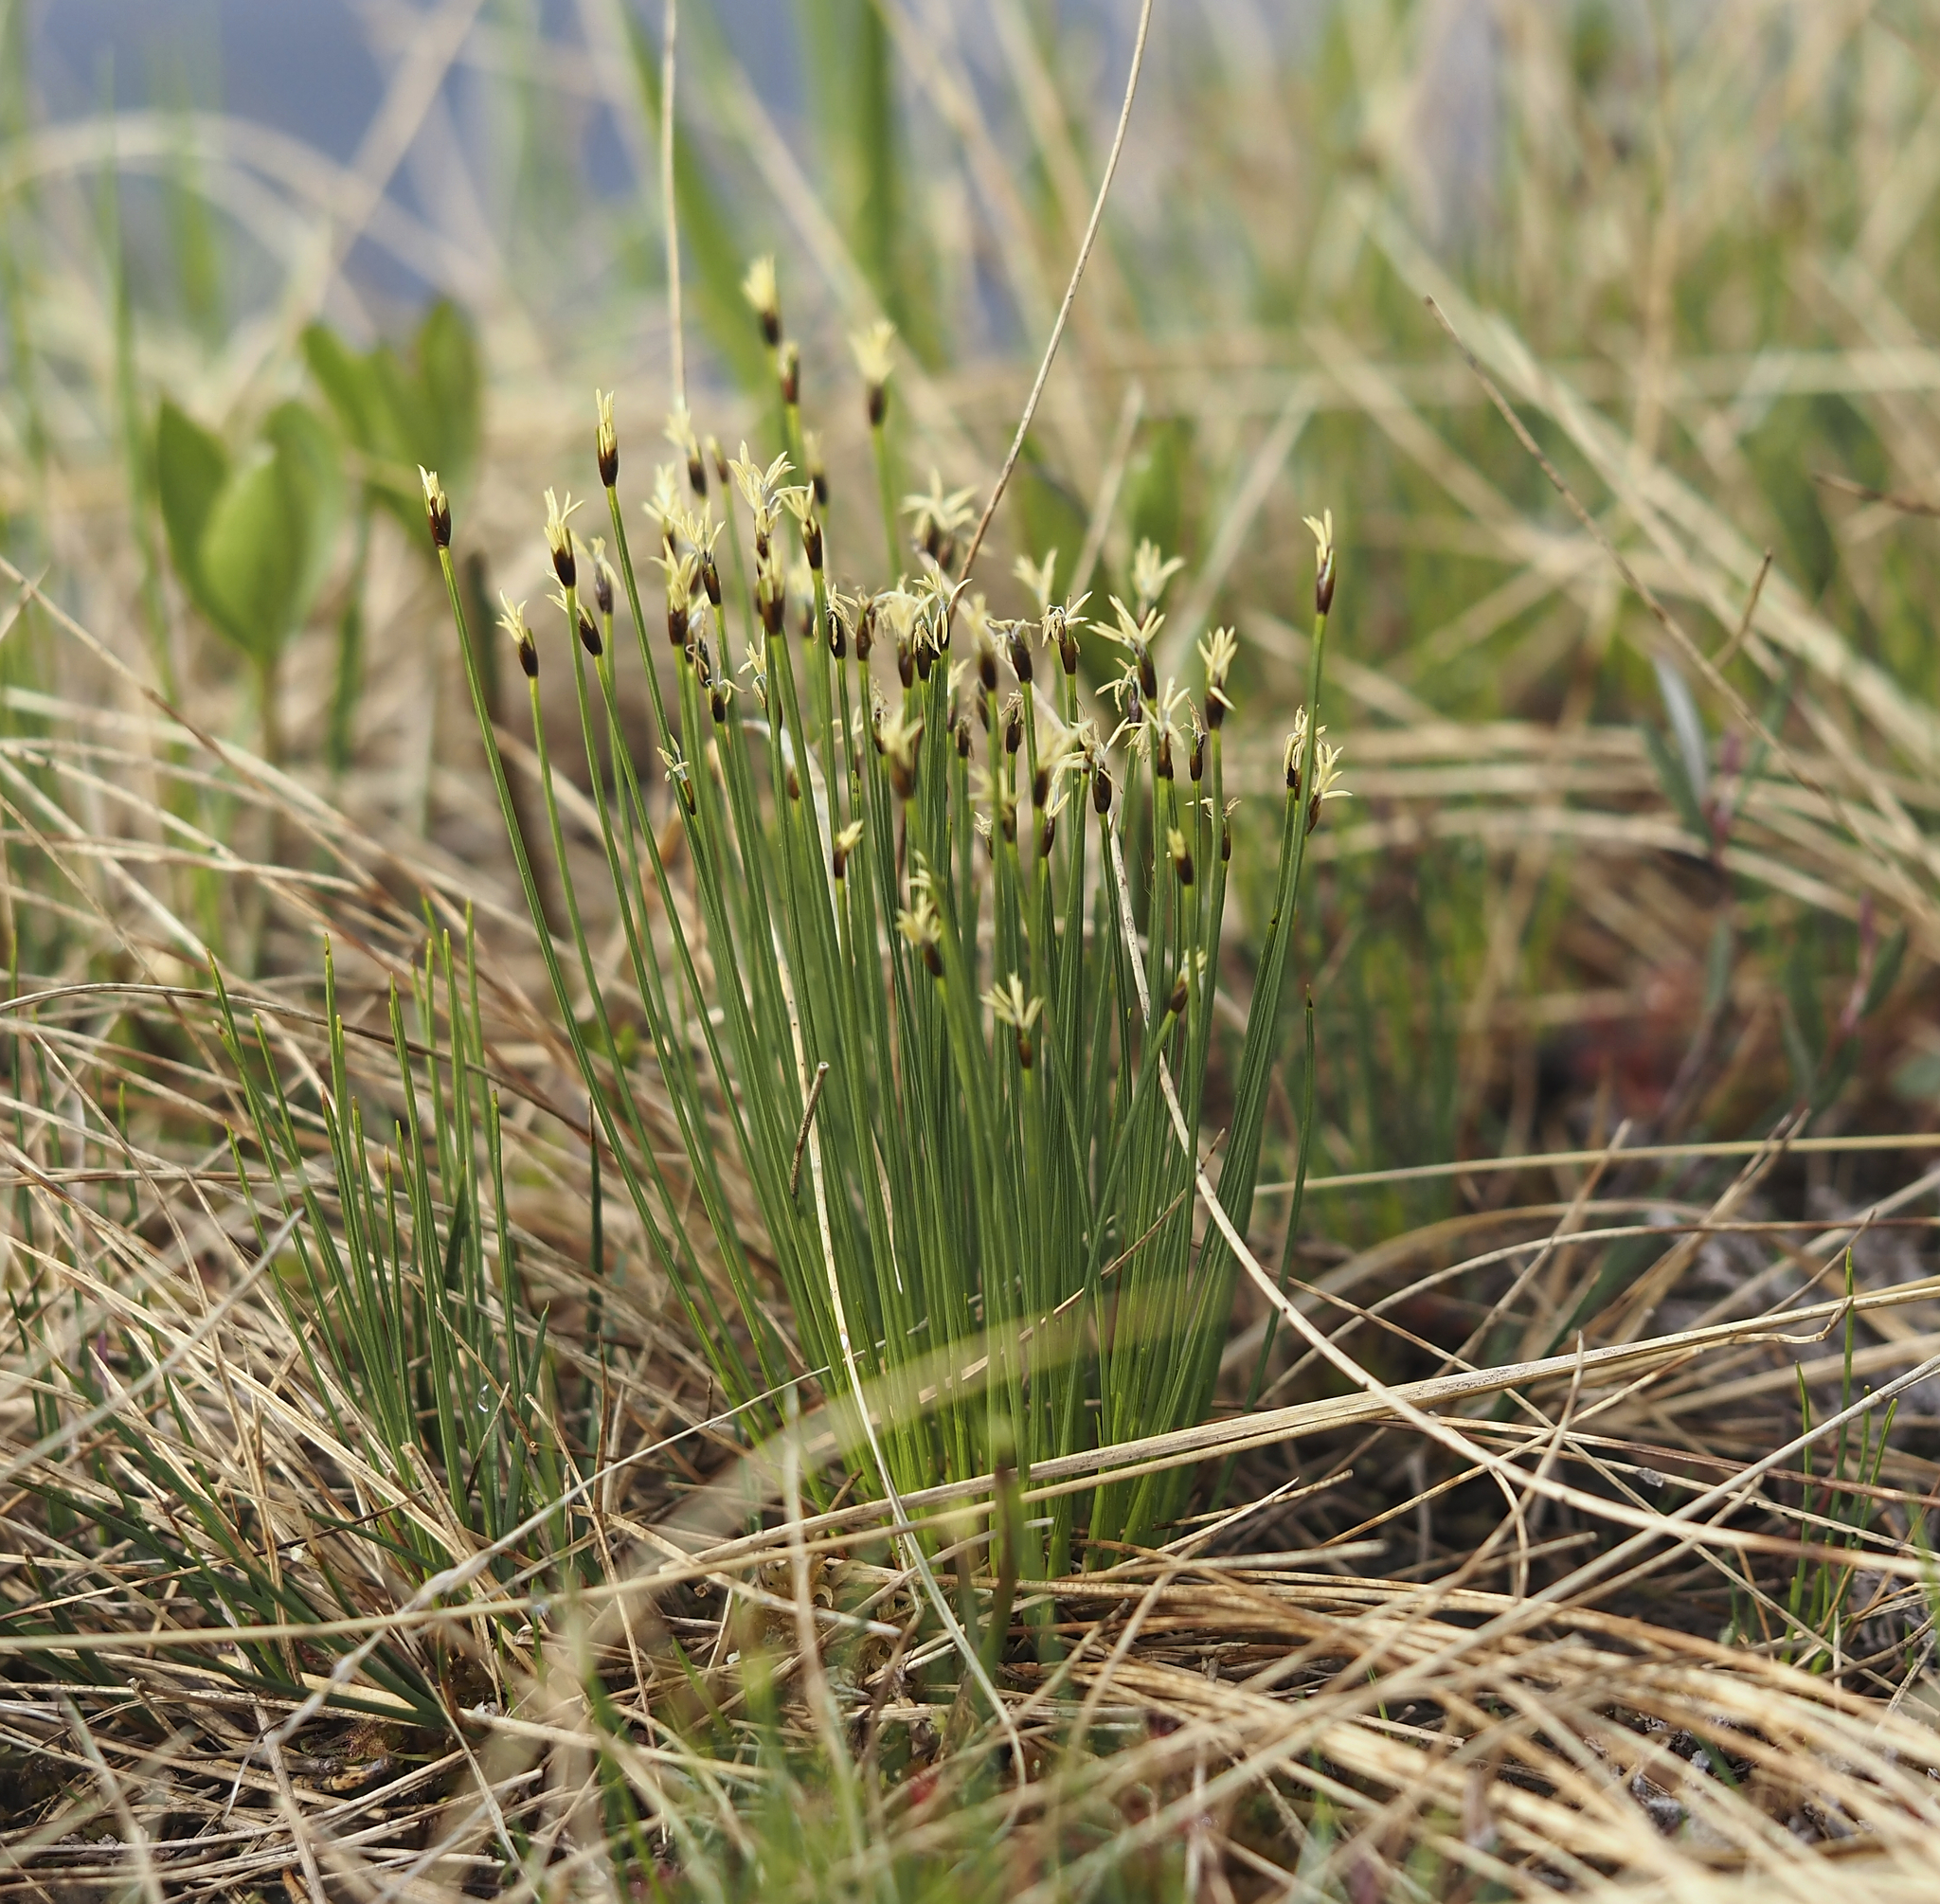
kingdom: Plantae
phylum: Tracheophyta
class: Liliopsida
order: Poales
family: Cyperaceae
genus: Trichophorum
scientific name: Trichophorum cespitosum
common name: Cespitose bulrush
